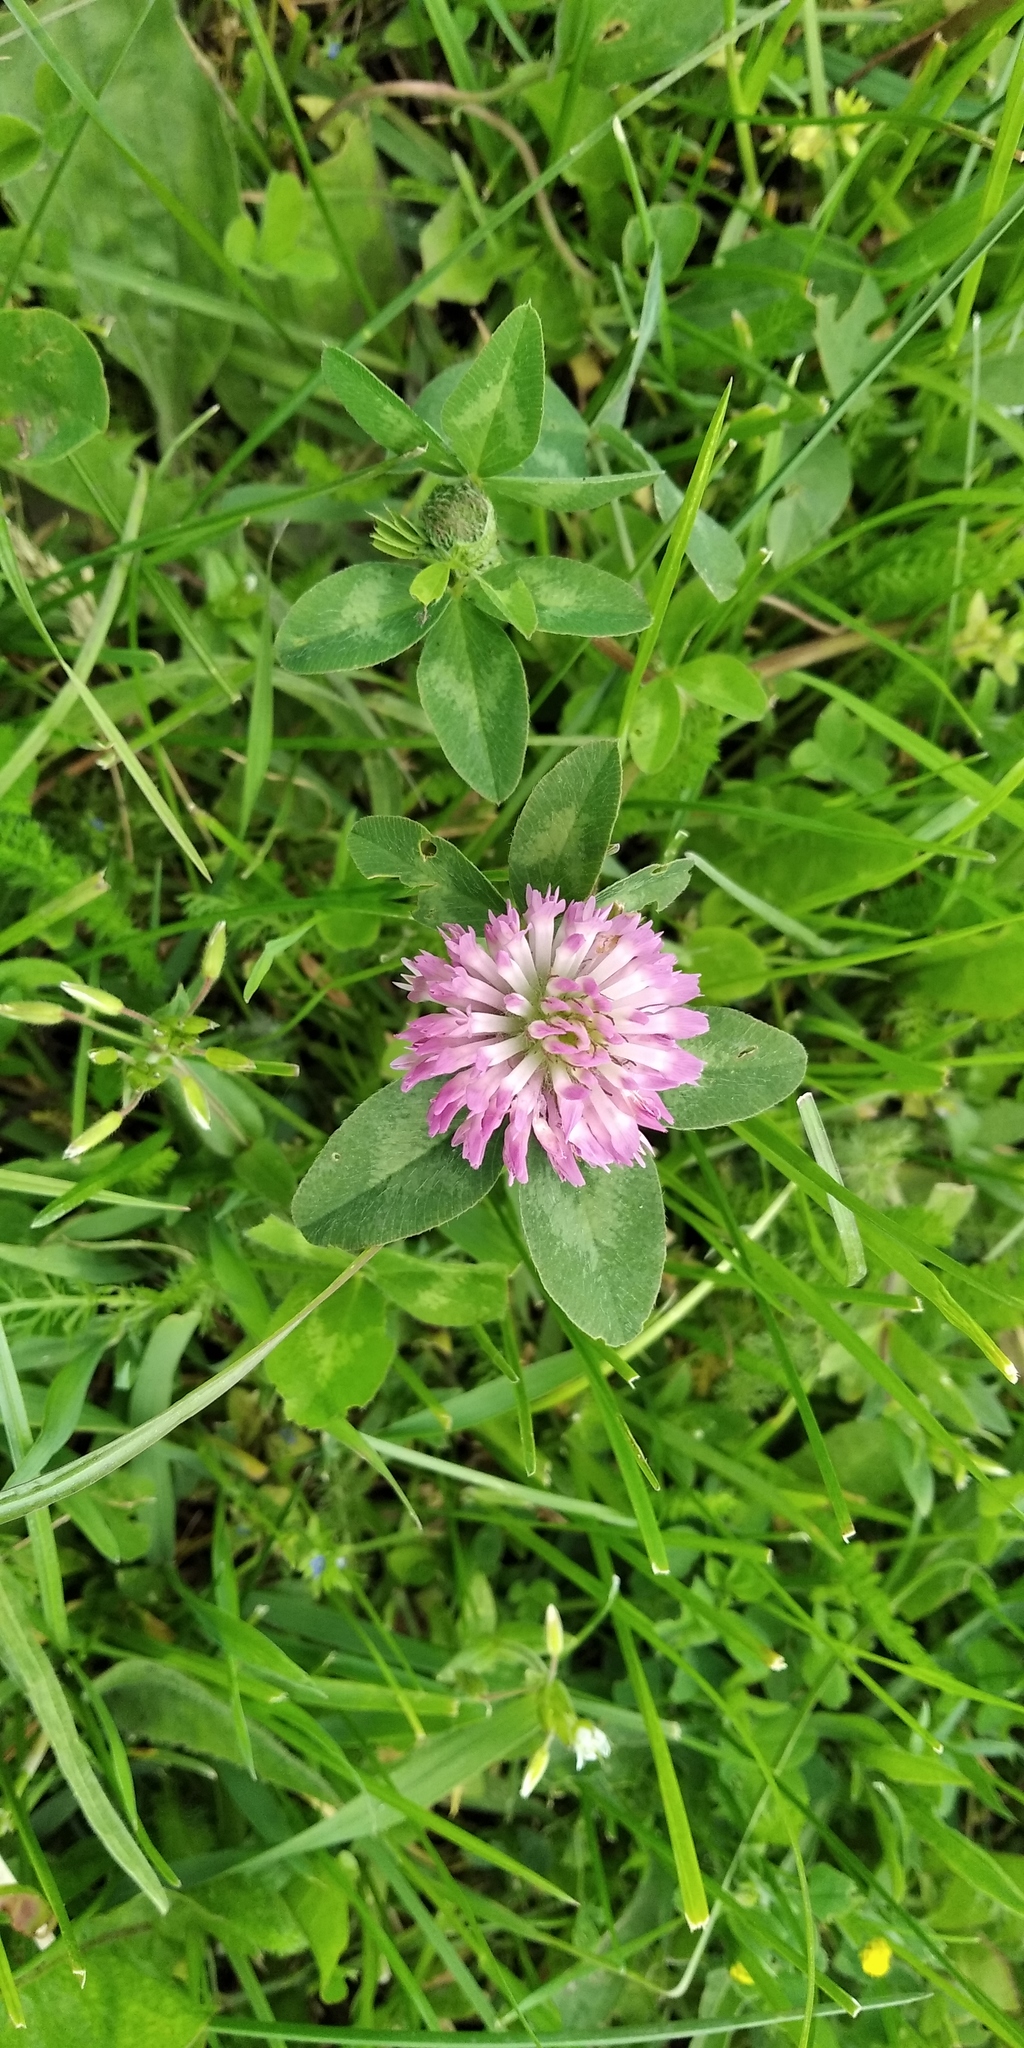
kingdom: Plantae
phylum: Tracheophyta
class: Magnoliopsida
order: Fabales
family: Fabaceae
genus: Trifolium
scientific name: Trifolium pratense
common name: Red clover
